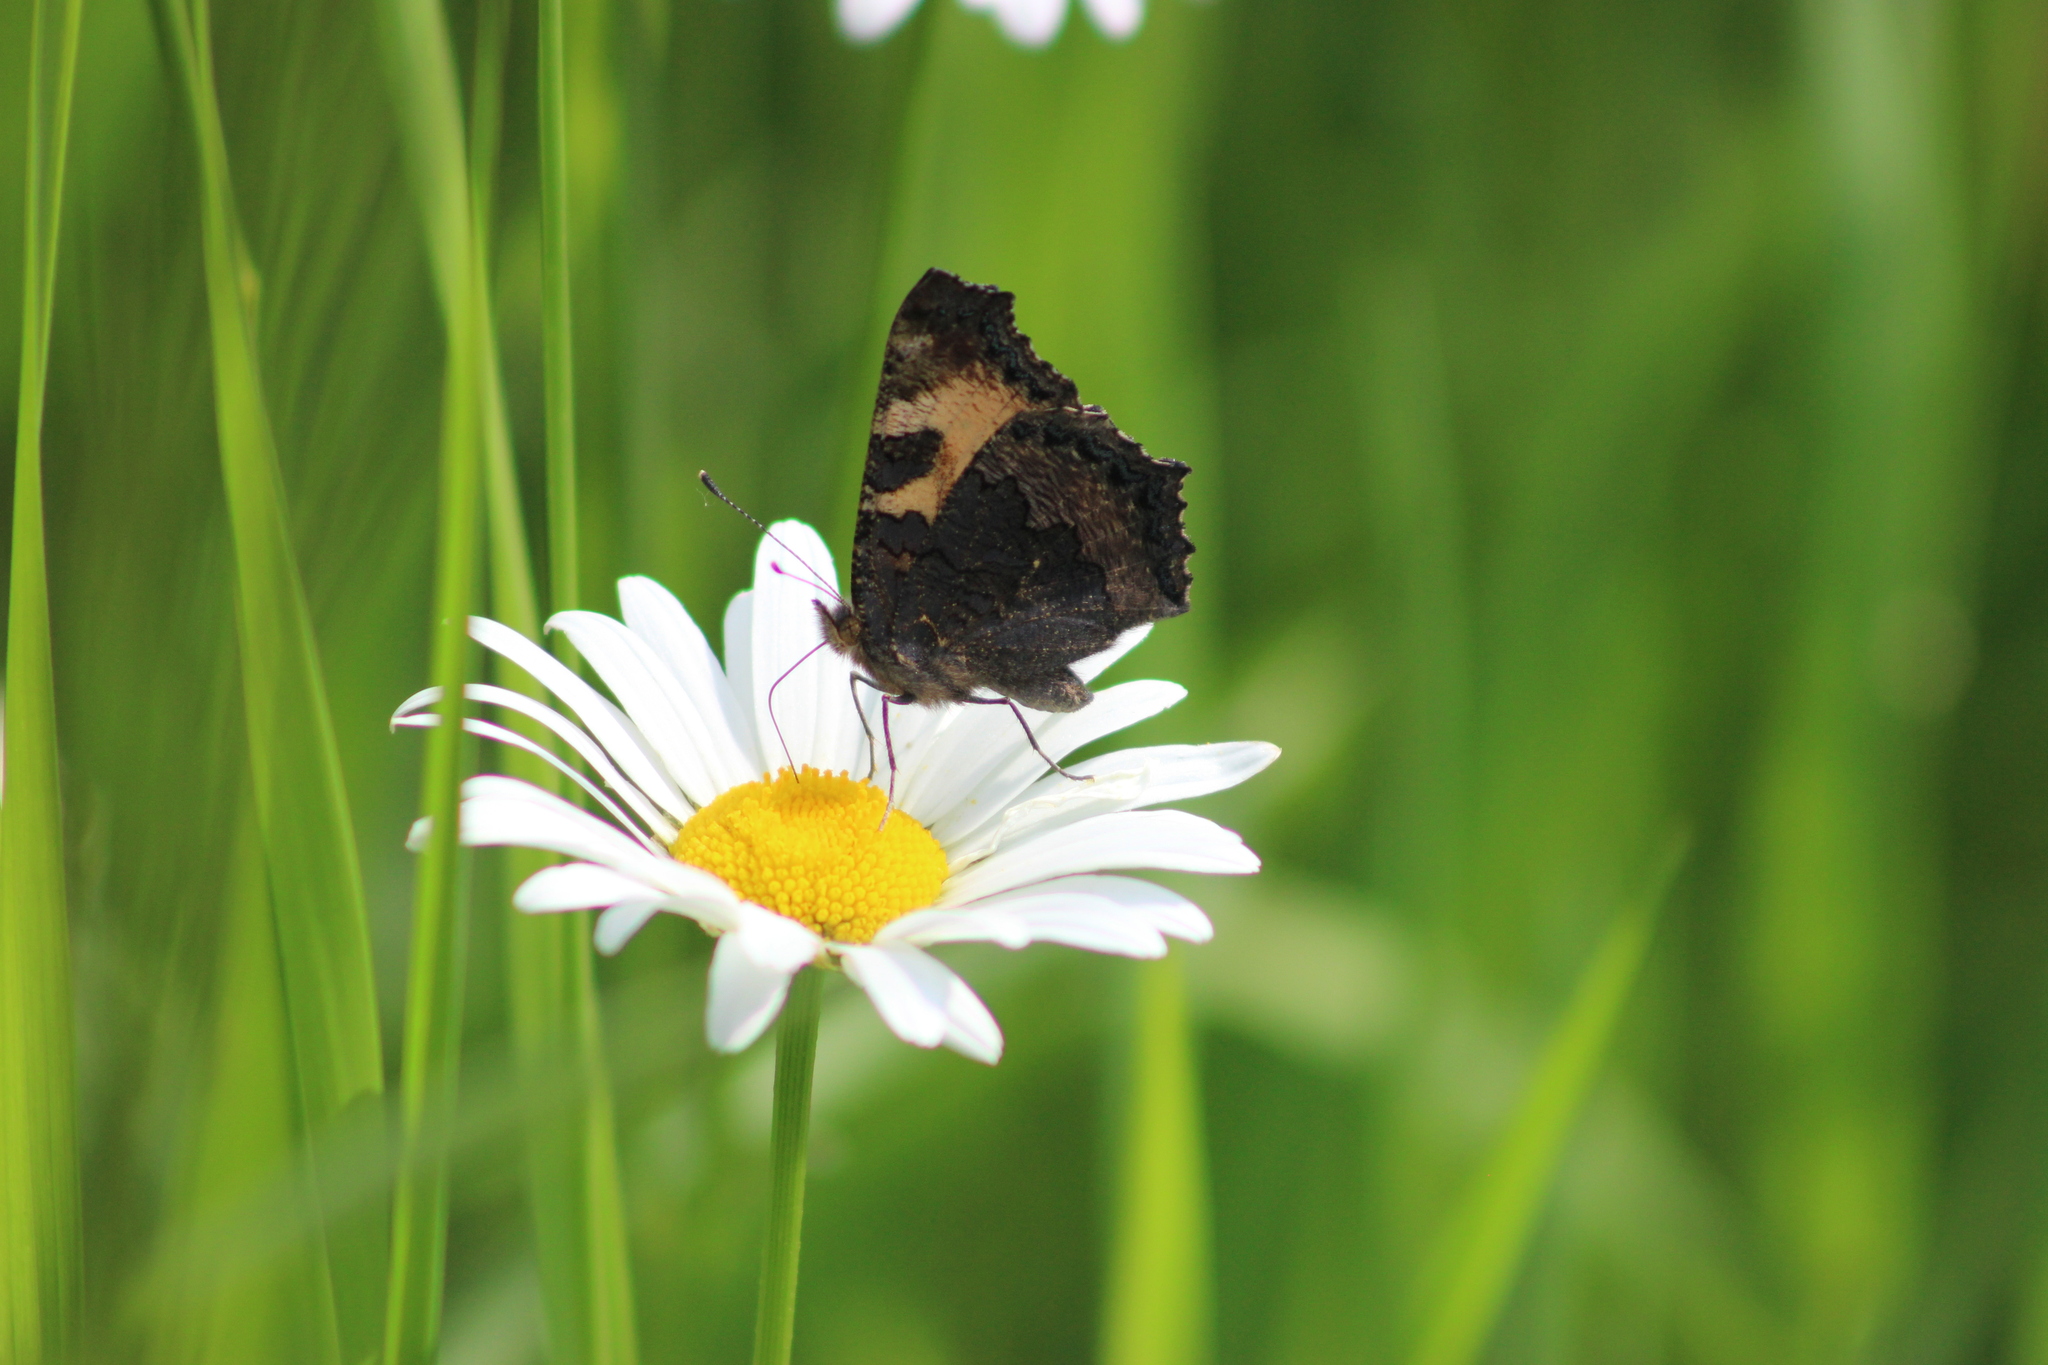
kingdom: Animalia
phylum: Arthropoda
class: Insecta
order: Lepidoptera
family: Nymphalidae
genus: Aglais
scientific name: Aglais urticae
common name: Small tortoiseshell
